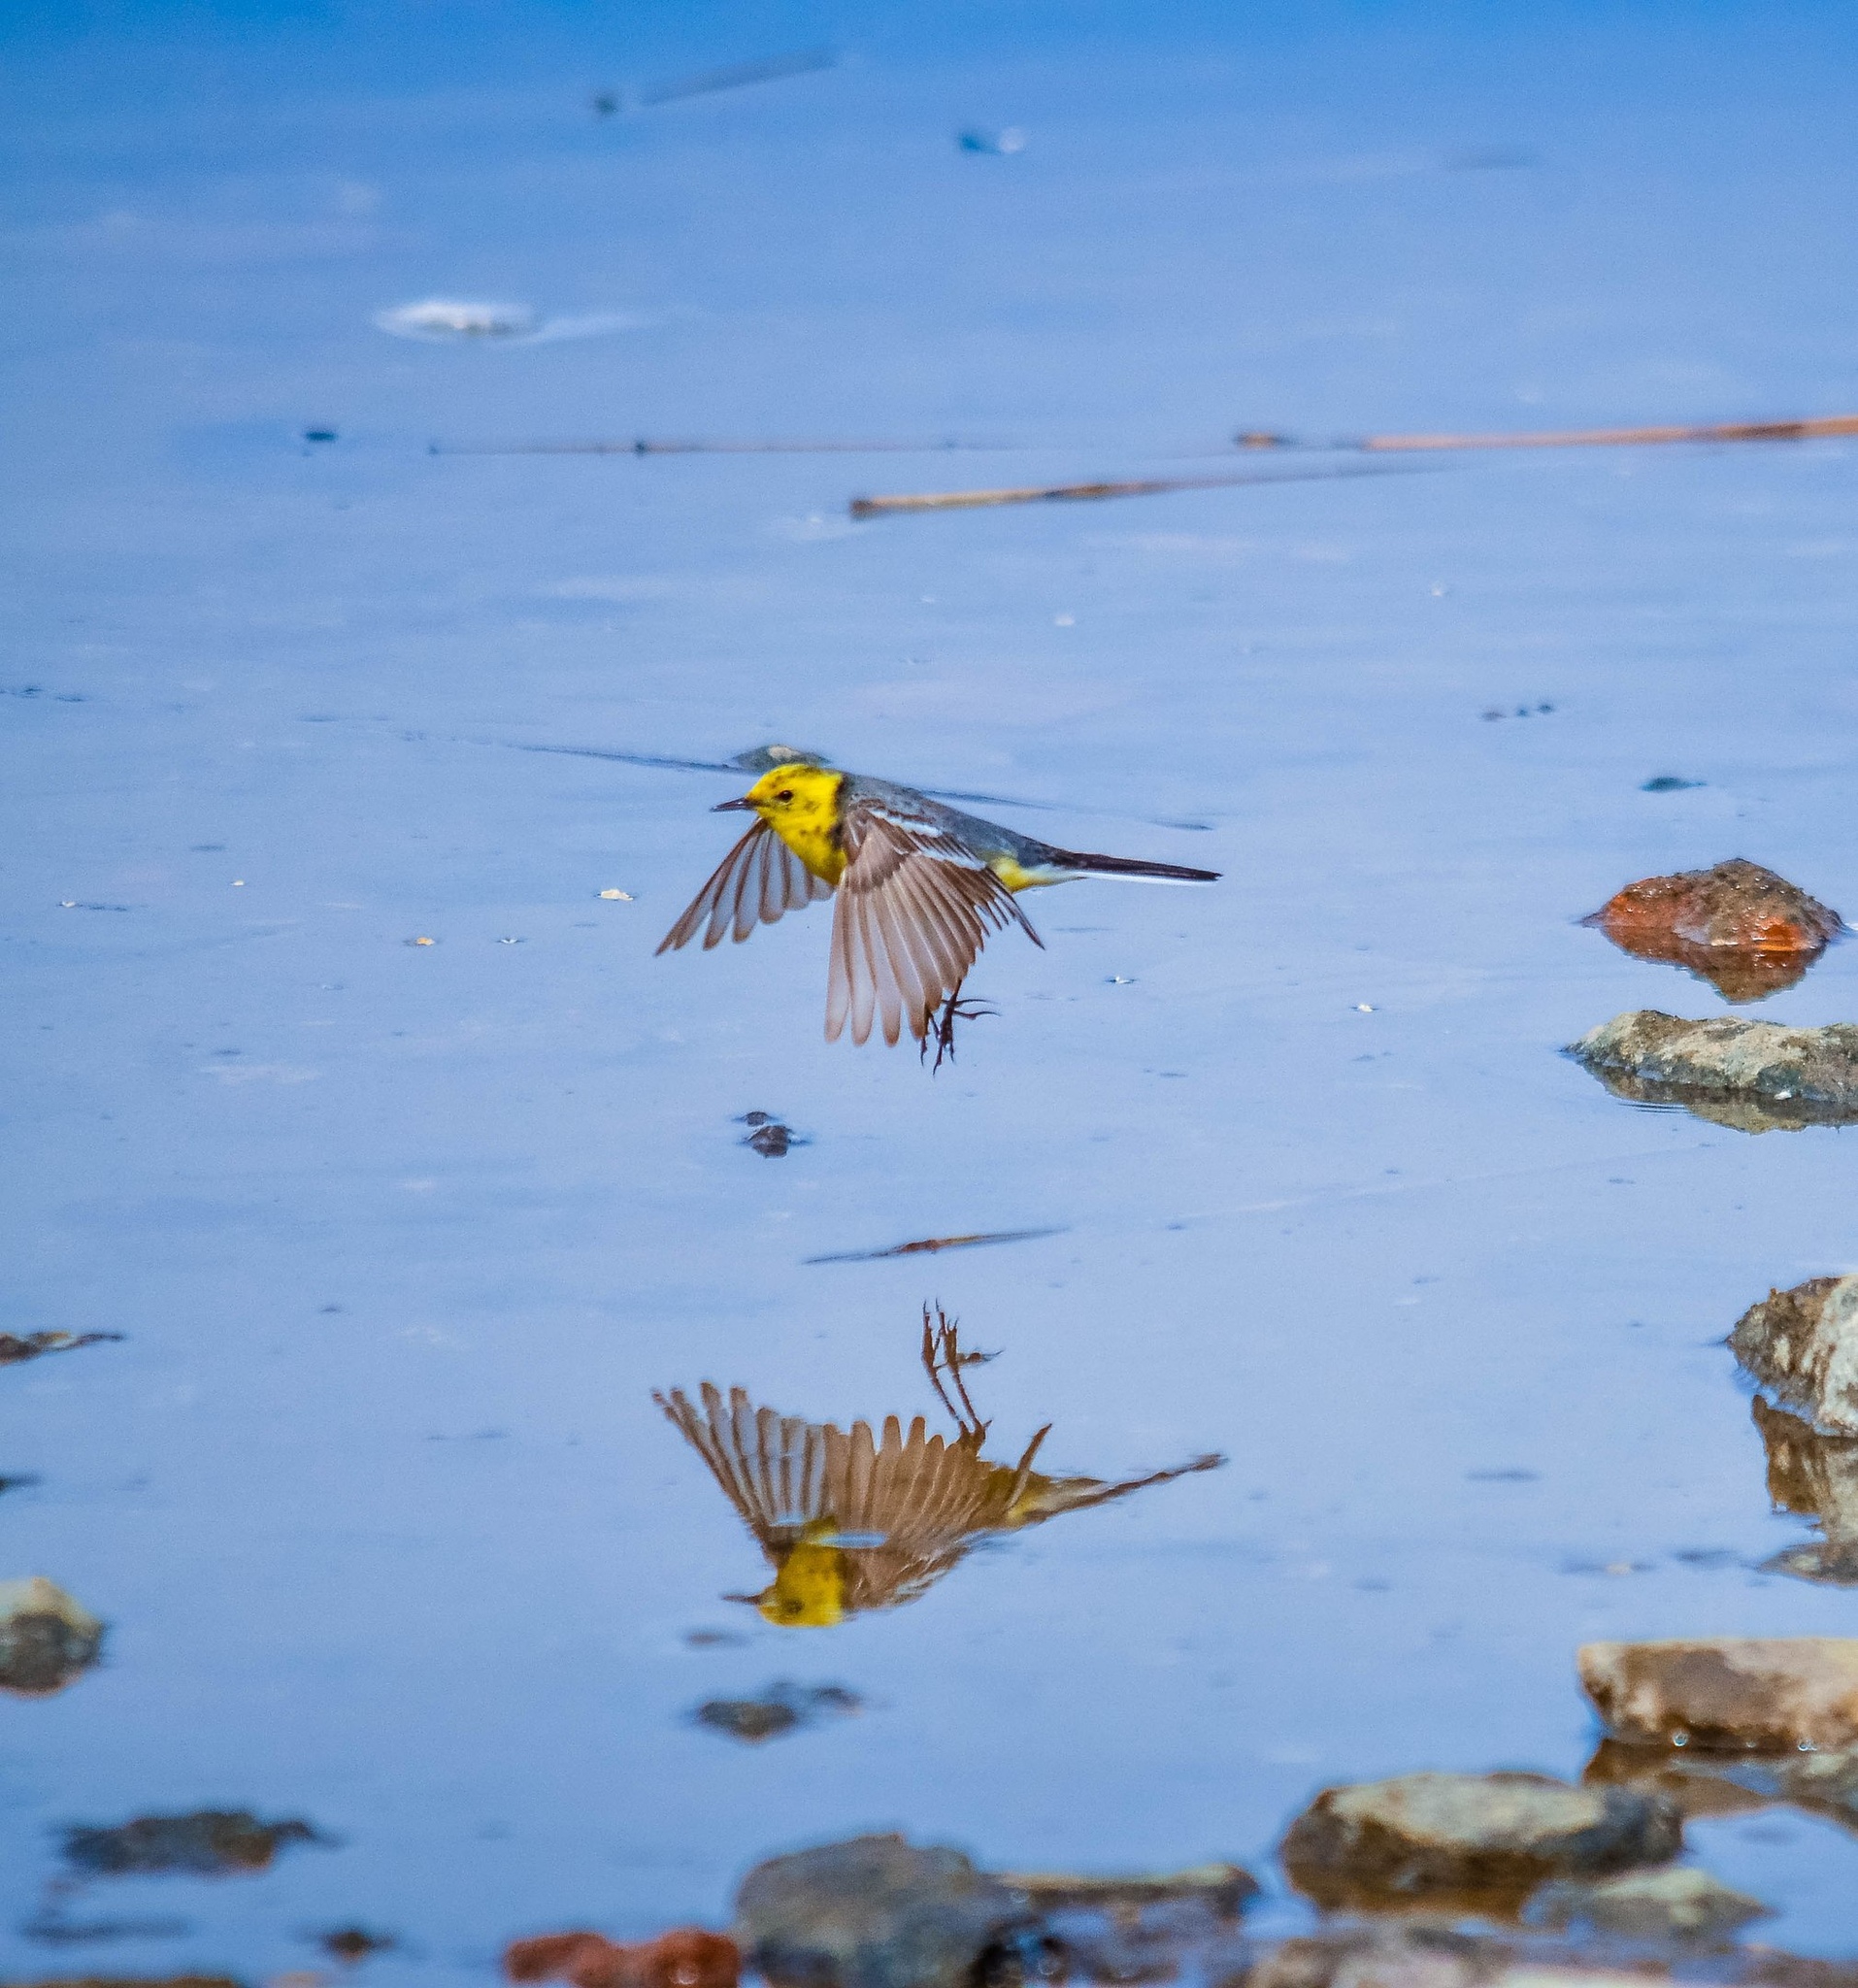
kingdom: Animalia
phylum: Chordata
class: Aves
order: Passeriformes
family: Motacillidae
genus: Motacilla
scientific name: Motacilla citreola
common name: Citrine wagtail
